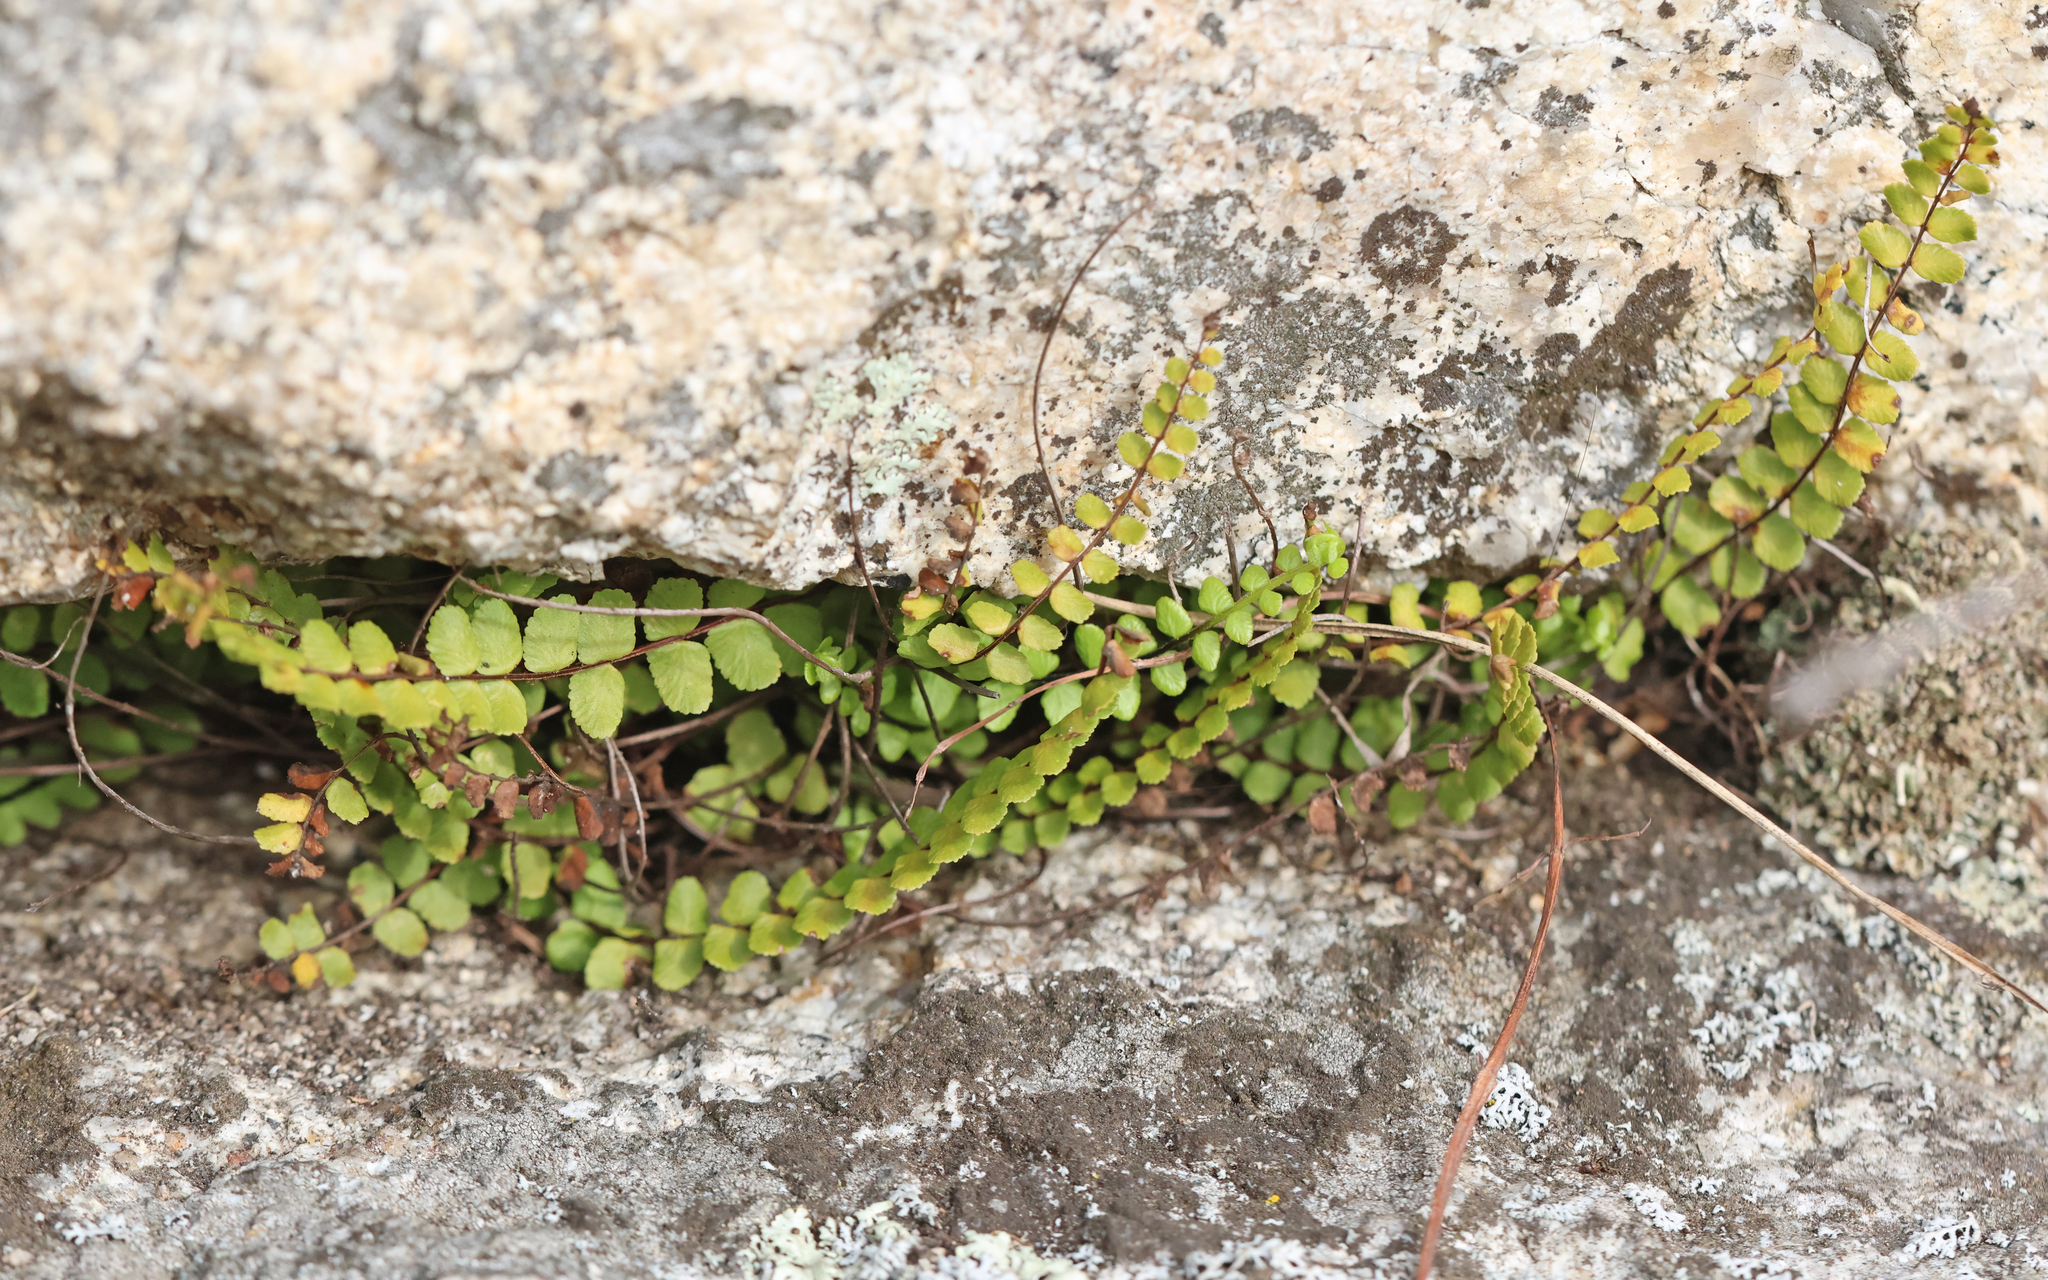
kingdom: Plantae
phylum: Tracheophyta
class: Polypodiopsida
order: Polypodiales
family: Aspleniaceae
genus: Asplenium
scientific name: Asplenium trichomanes
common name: Maidenhair spleenwort
